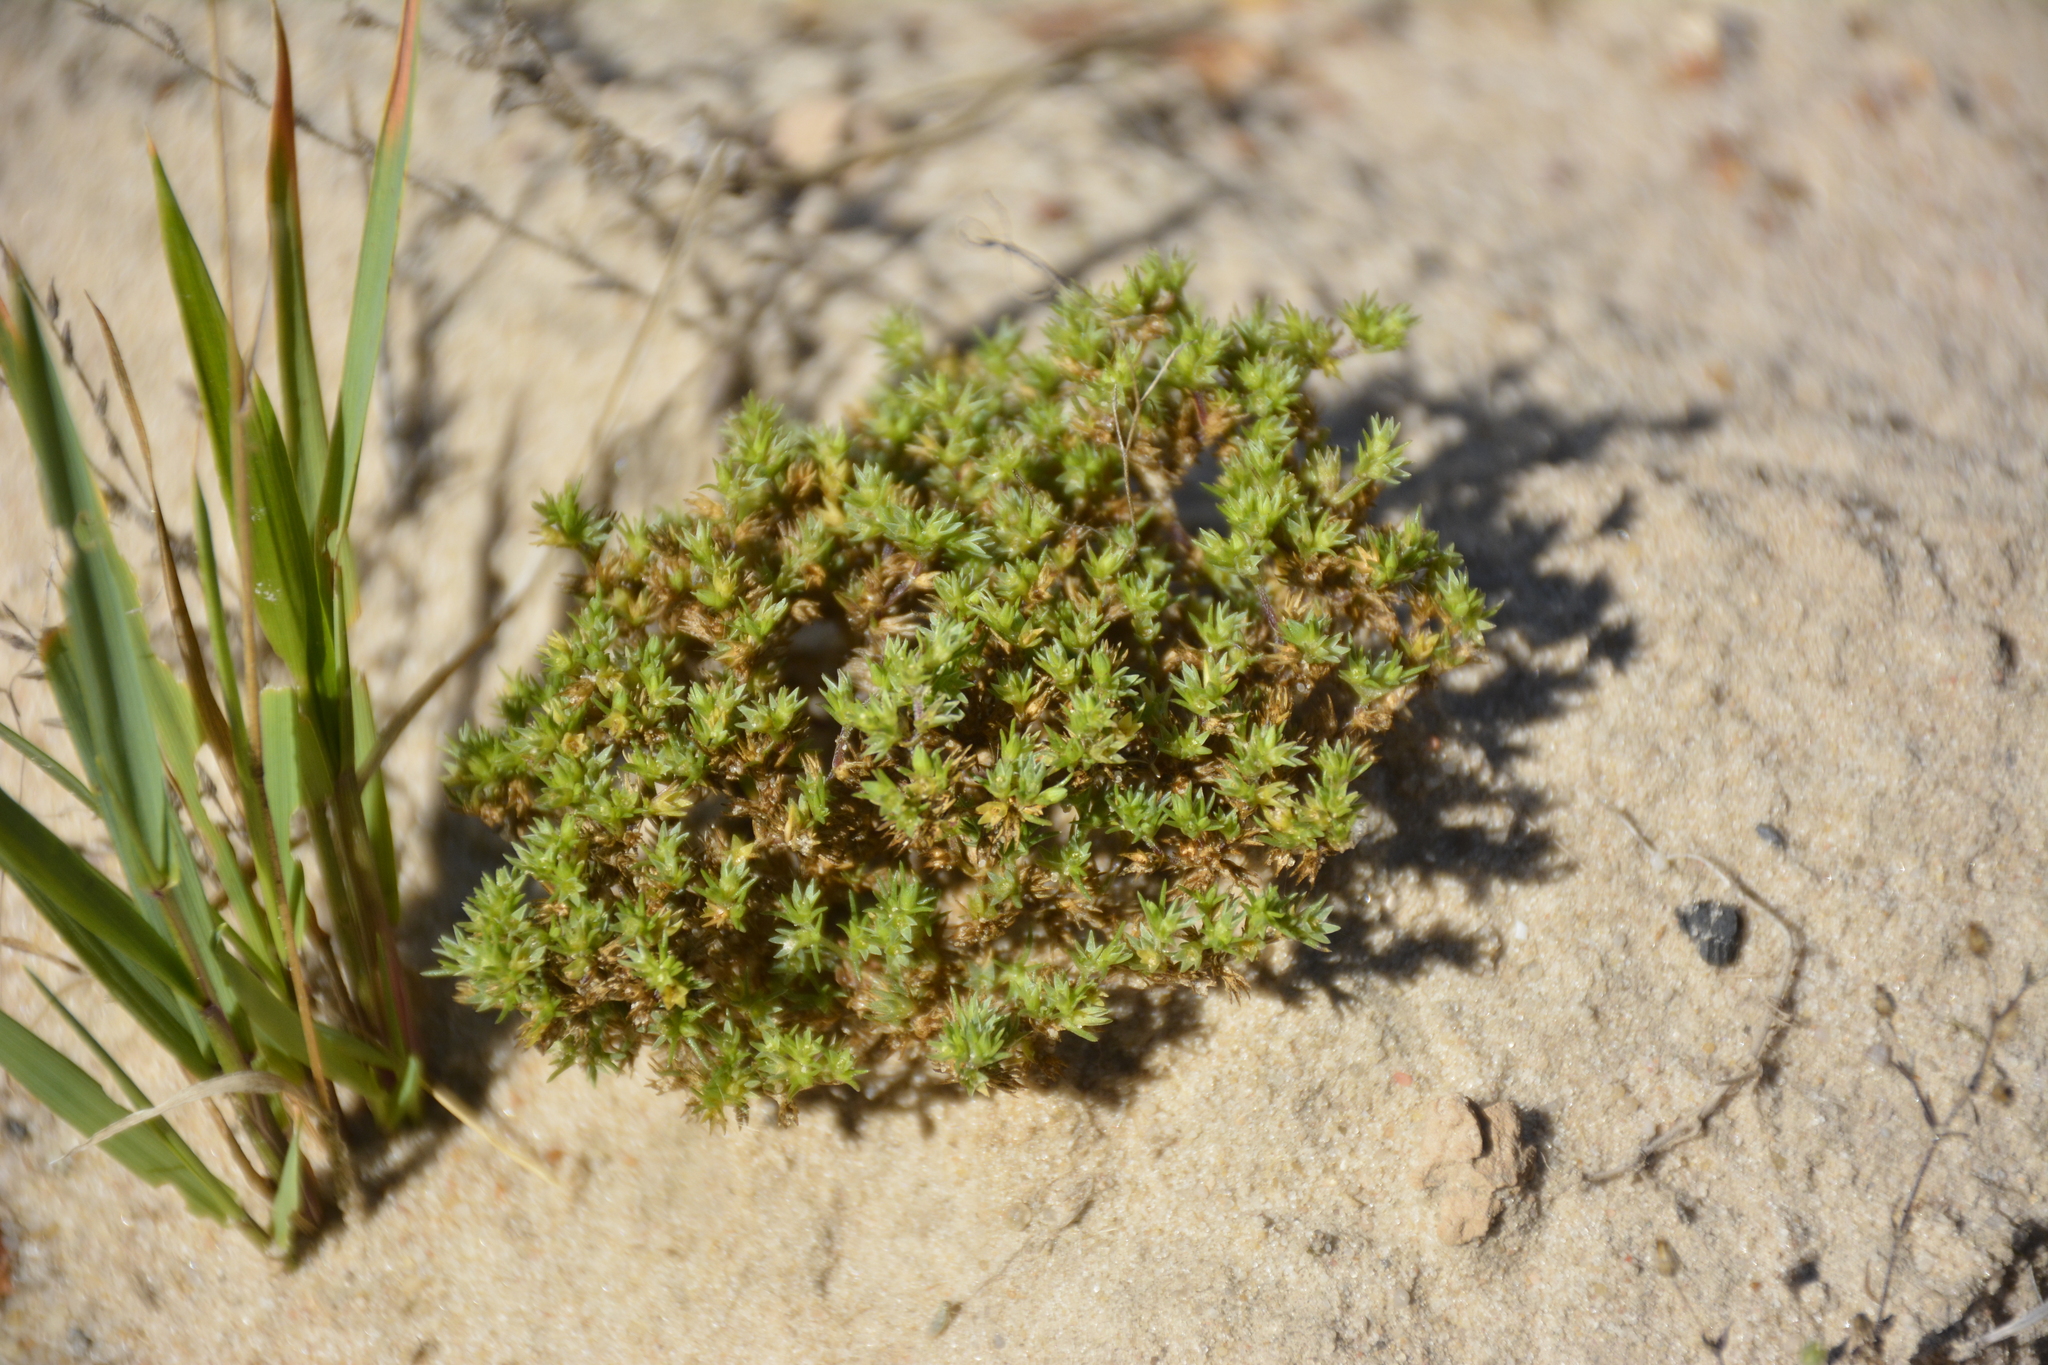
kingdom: Plantae
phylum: Tracheophyta
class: Magnoliopsida
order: Caryophyllales
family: Caryophyllaceae
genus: Scleranthus
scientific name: Scleranthus annuus
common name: Annual knawel
